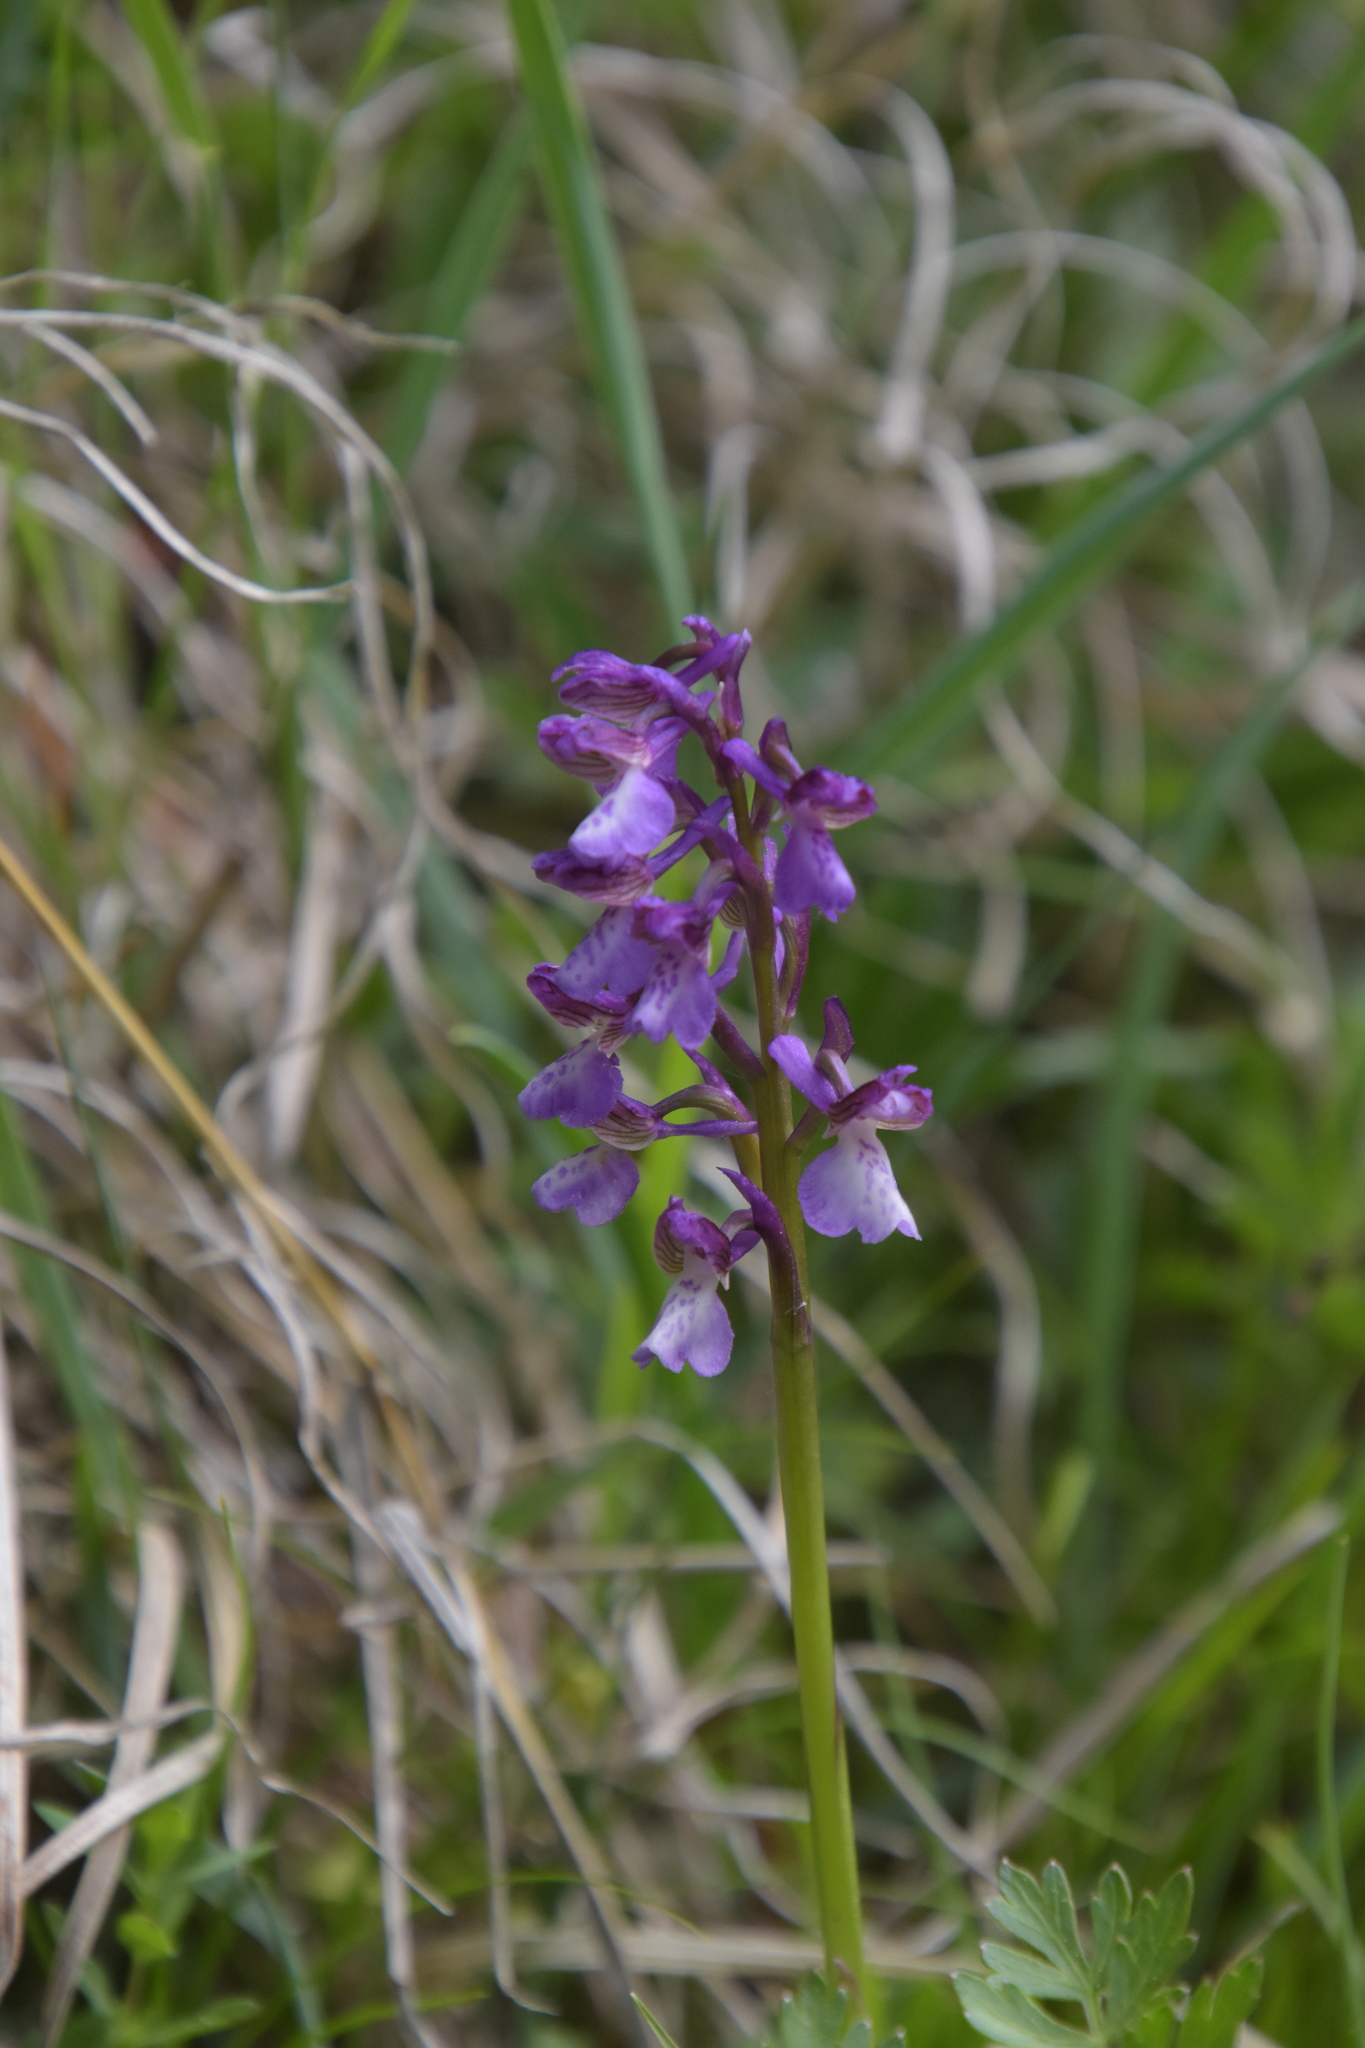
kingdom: Plantae
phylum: Tracheophyta
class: Liliopsida
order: Asparagales
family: Orchidaceae
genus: Anacamptis
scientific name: Anacamptis morio
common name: Green-winged orchid
